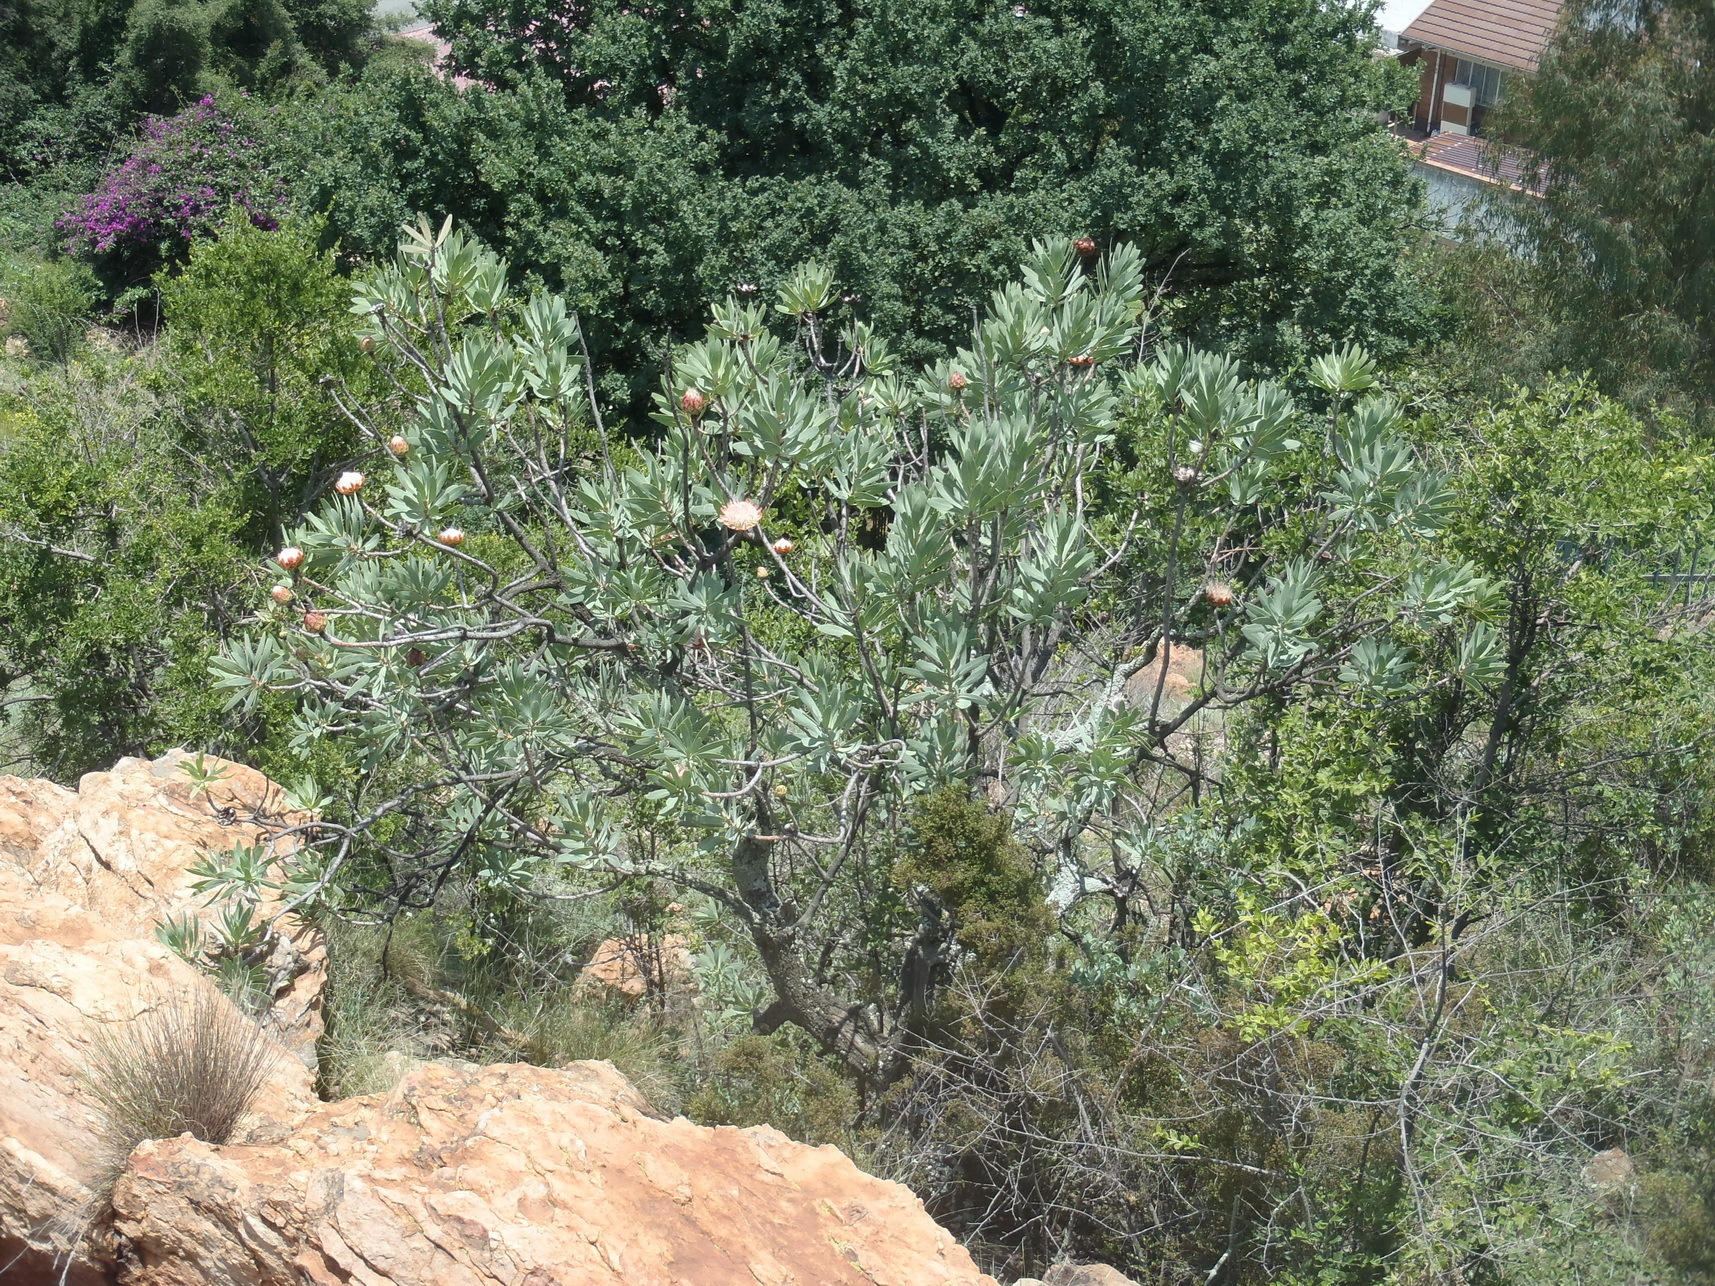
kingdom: Plantae
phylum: Tracheophyta
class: Magnoliopsida
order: Proteales
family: Proteaceae
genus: Protea
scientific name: Protea caffra
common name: Common sugarbush
